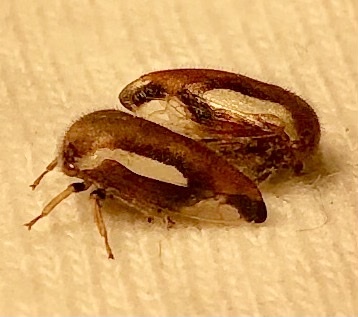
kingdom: Animalia
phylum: Arthropoda
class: Insecta
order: Hemiptera
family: Membracidae
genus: Ophiderma
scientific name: Ophiderma flavicephala
